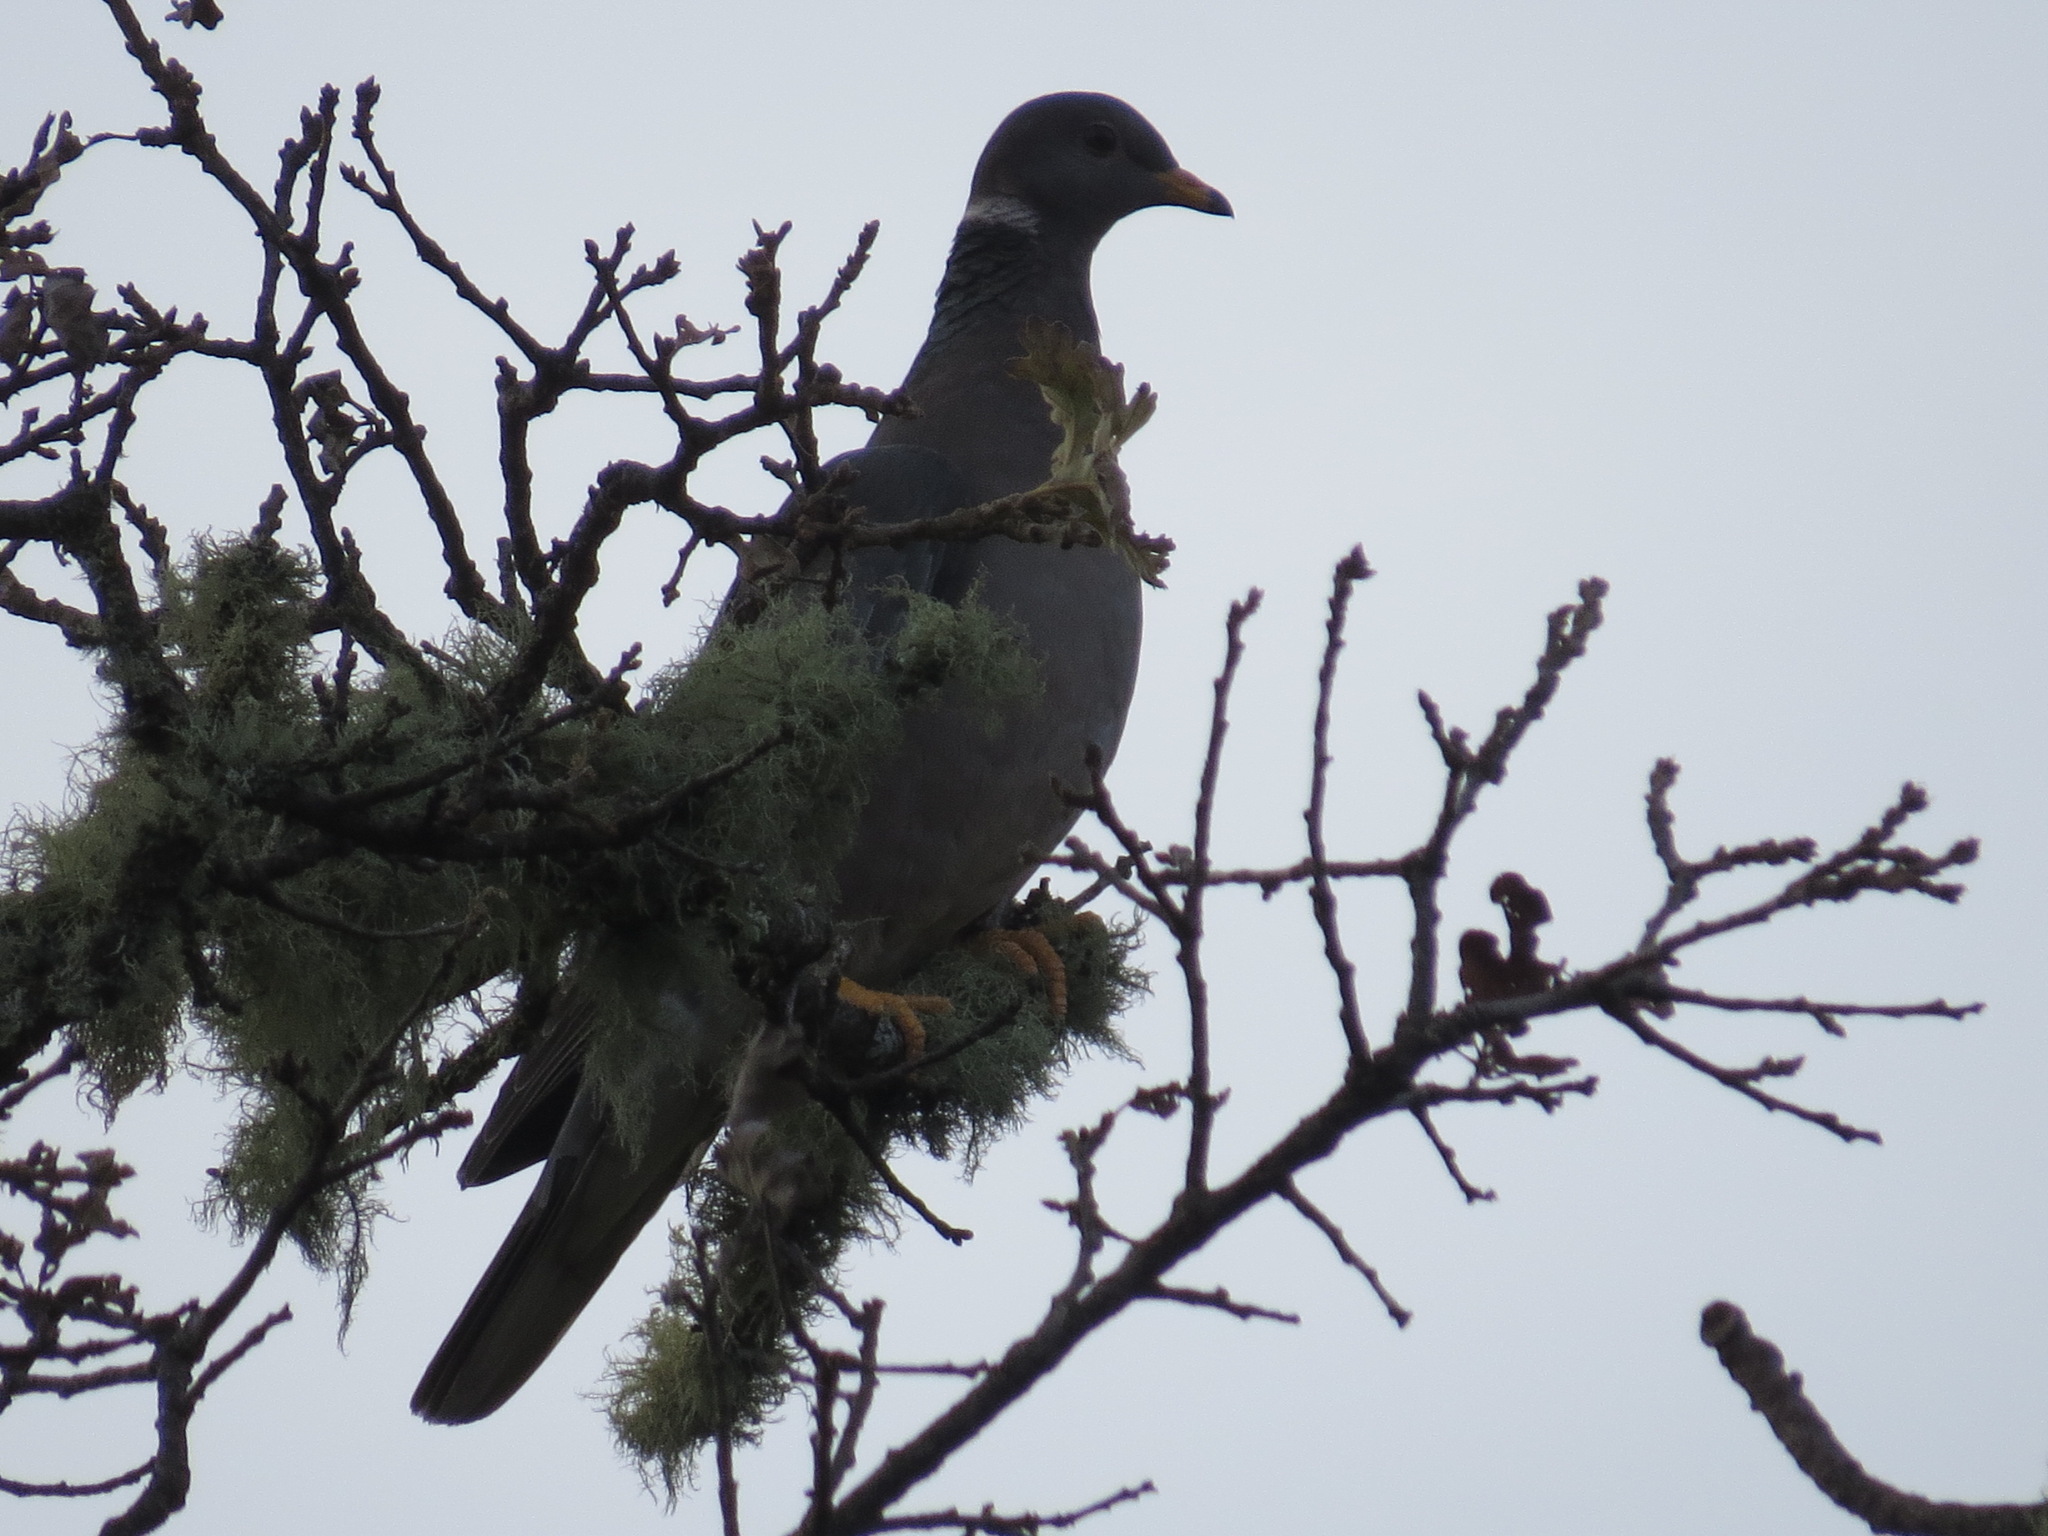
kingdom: Animalia
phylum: Chordata
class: Aves
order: Columbiformes
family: Columbidae
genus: Patagioenas
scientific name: Patagioenas fasciata
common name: Band-tailed pigeon
